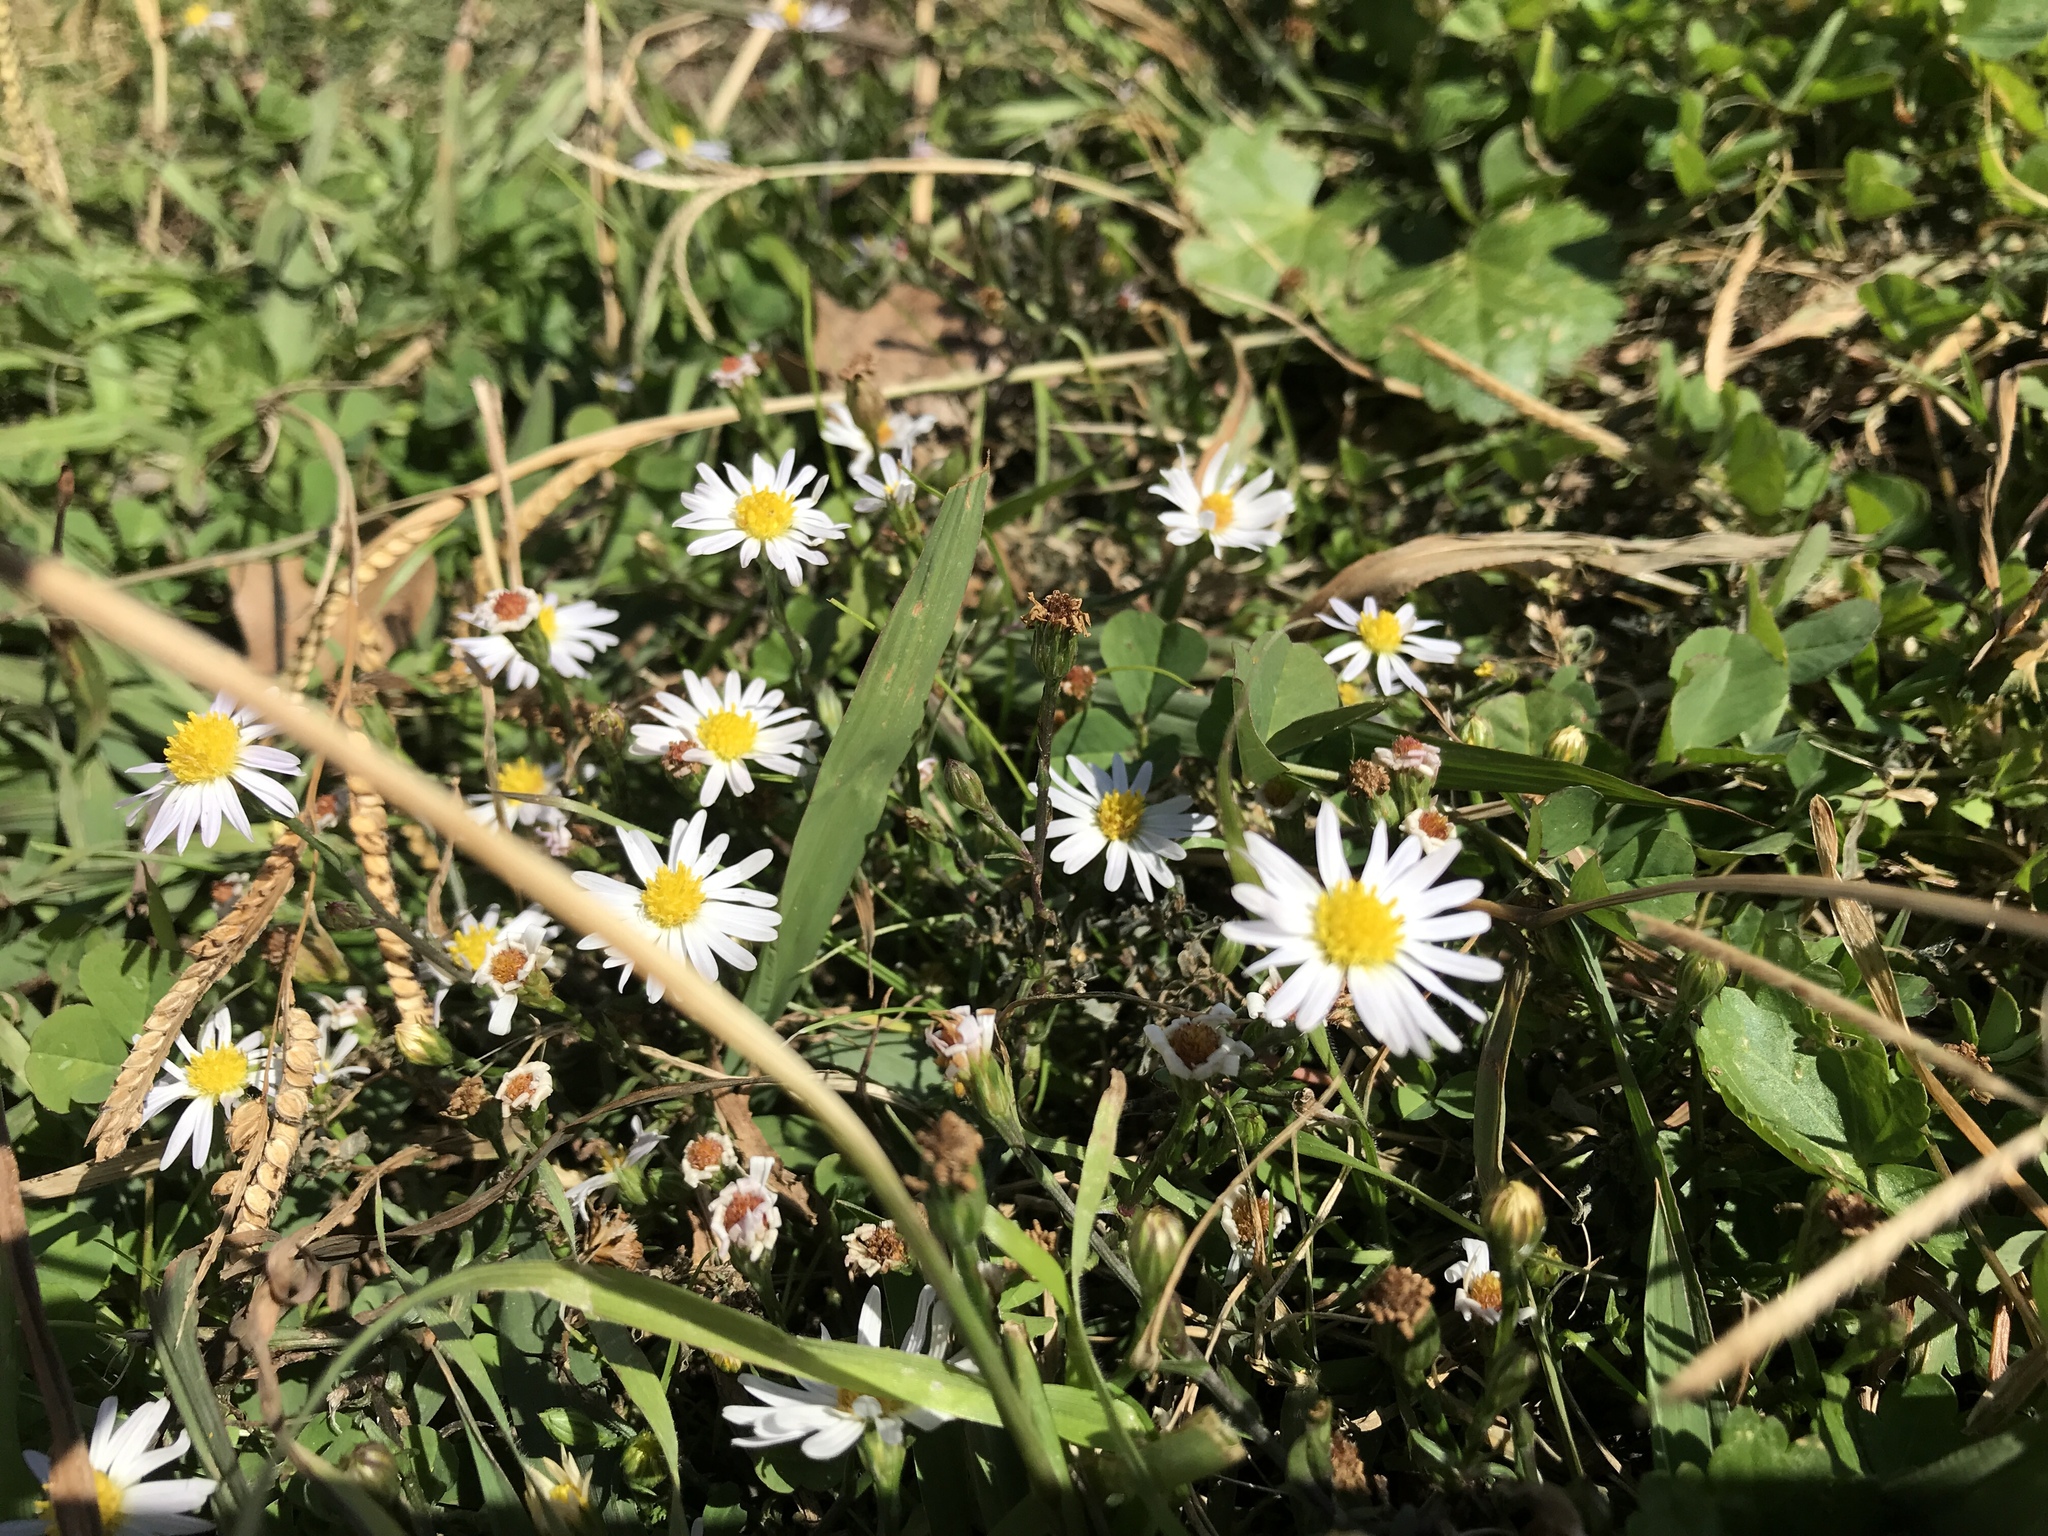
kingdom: Plantae
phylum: Tracheophyta
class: Magnoliopsida
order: Asterales
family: Asteraceae
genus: Symphyotrichum
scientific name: Symphyotrichum divaricatum
